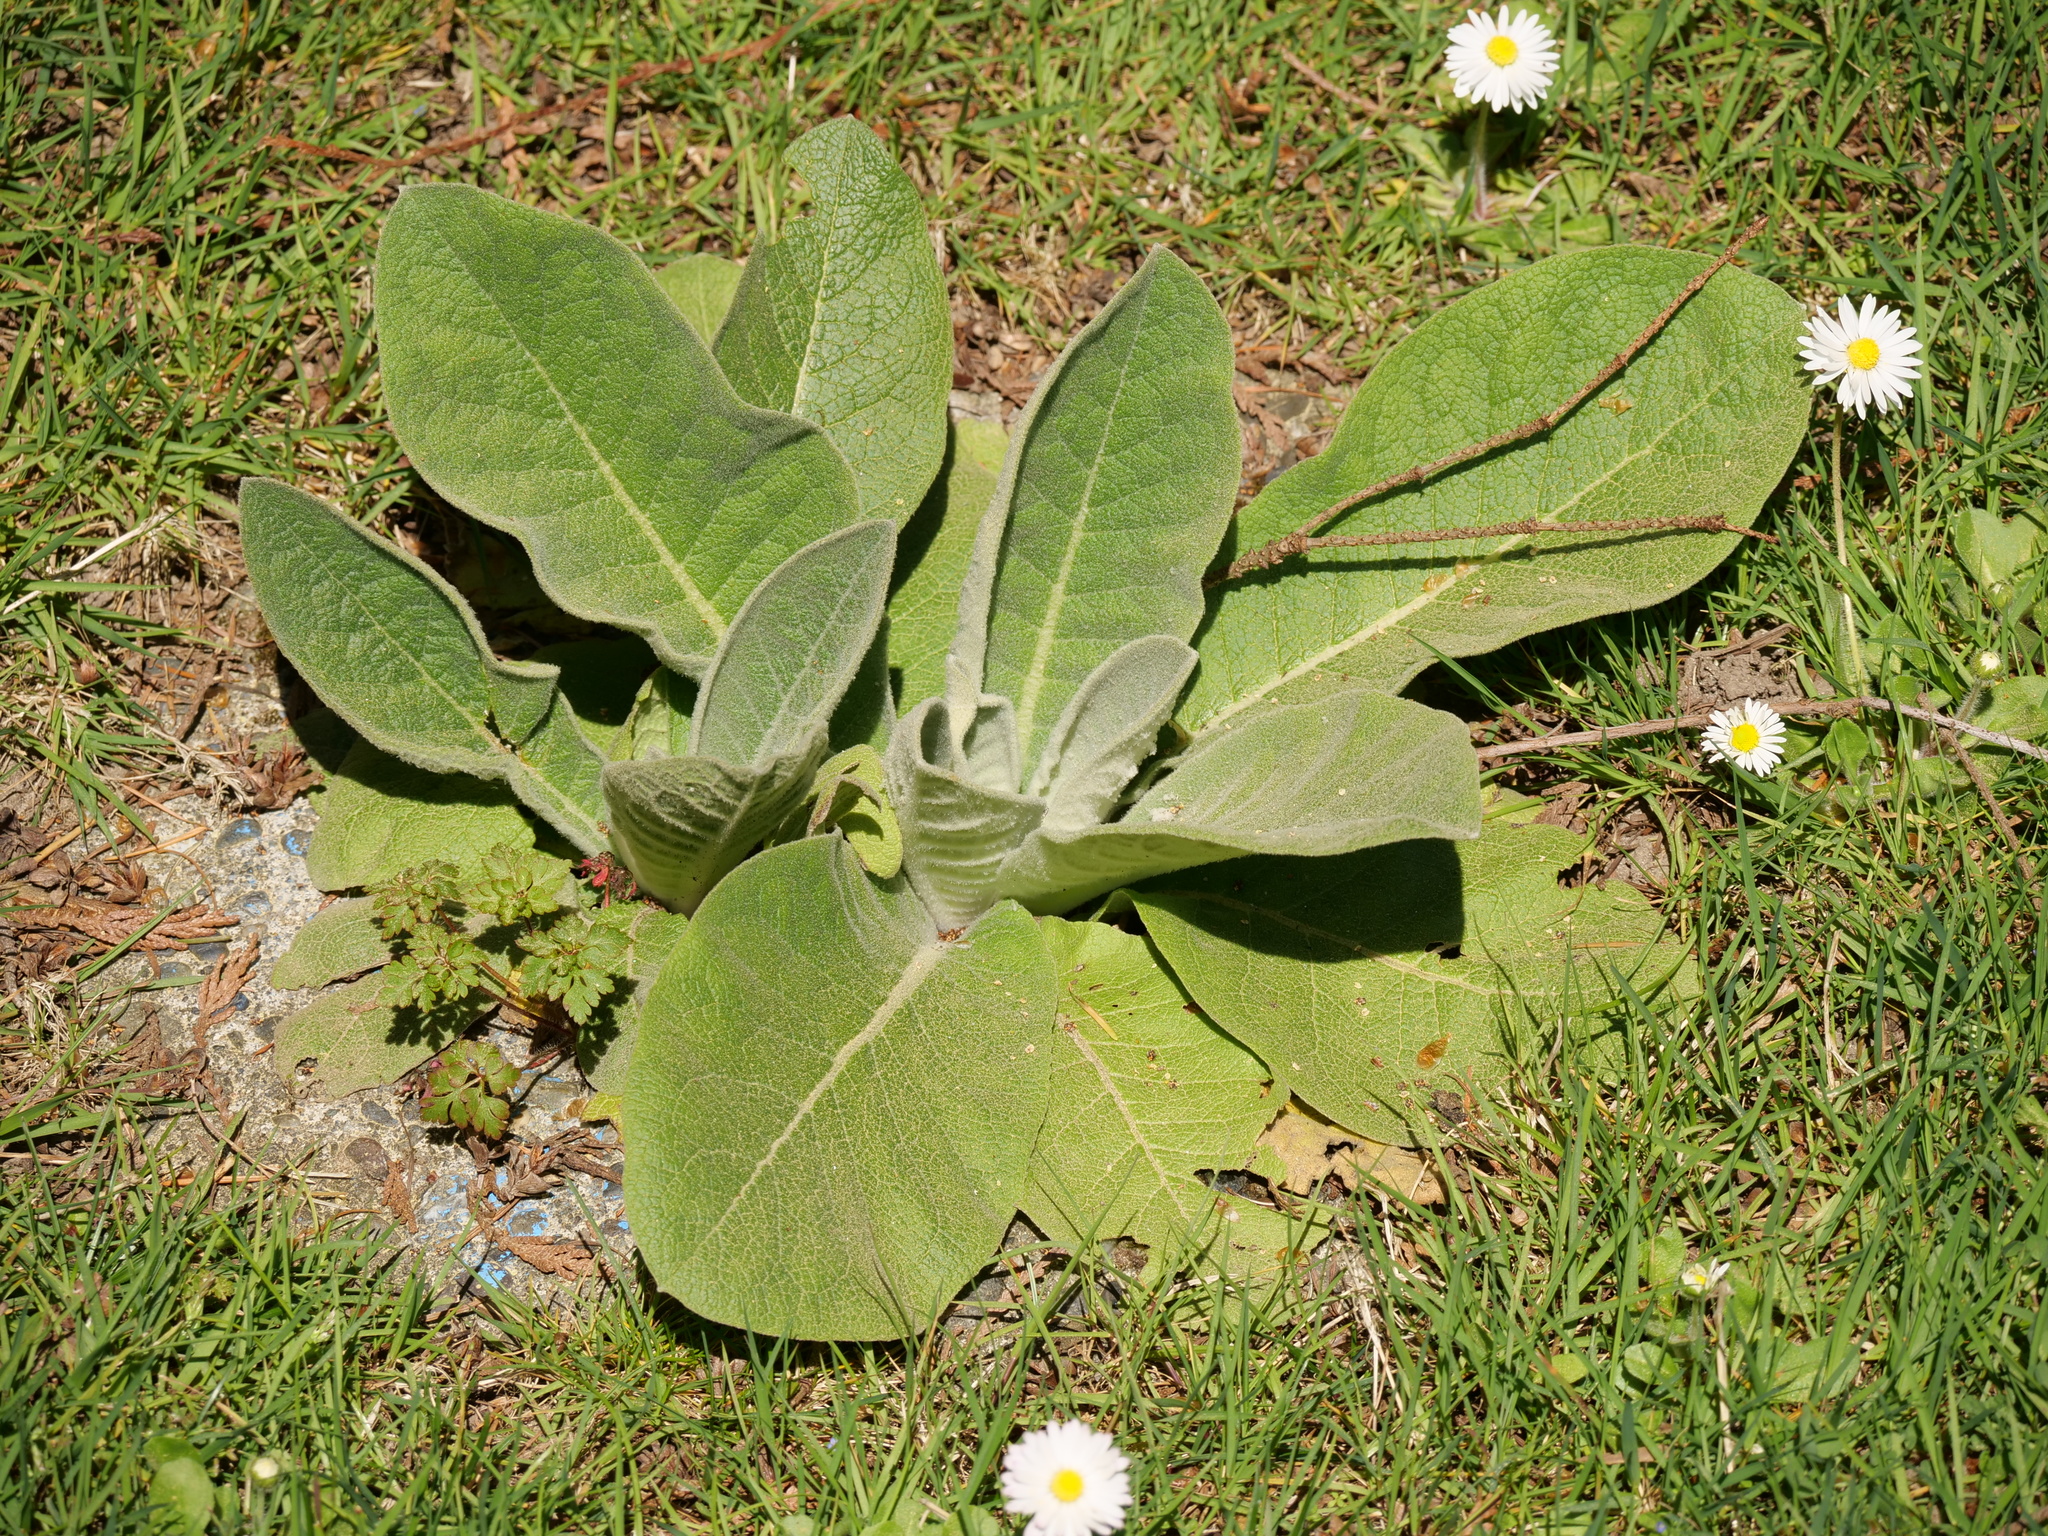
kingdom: Plantae
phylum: Tracheophyta
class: Magnoliopsida
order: Lamiales
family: Scrophulariaceae
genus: Verbascum
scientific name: Verbascum thapsus
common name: Common mullein
